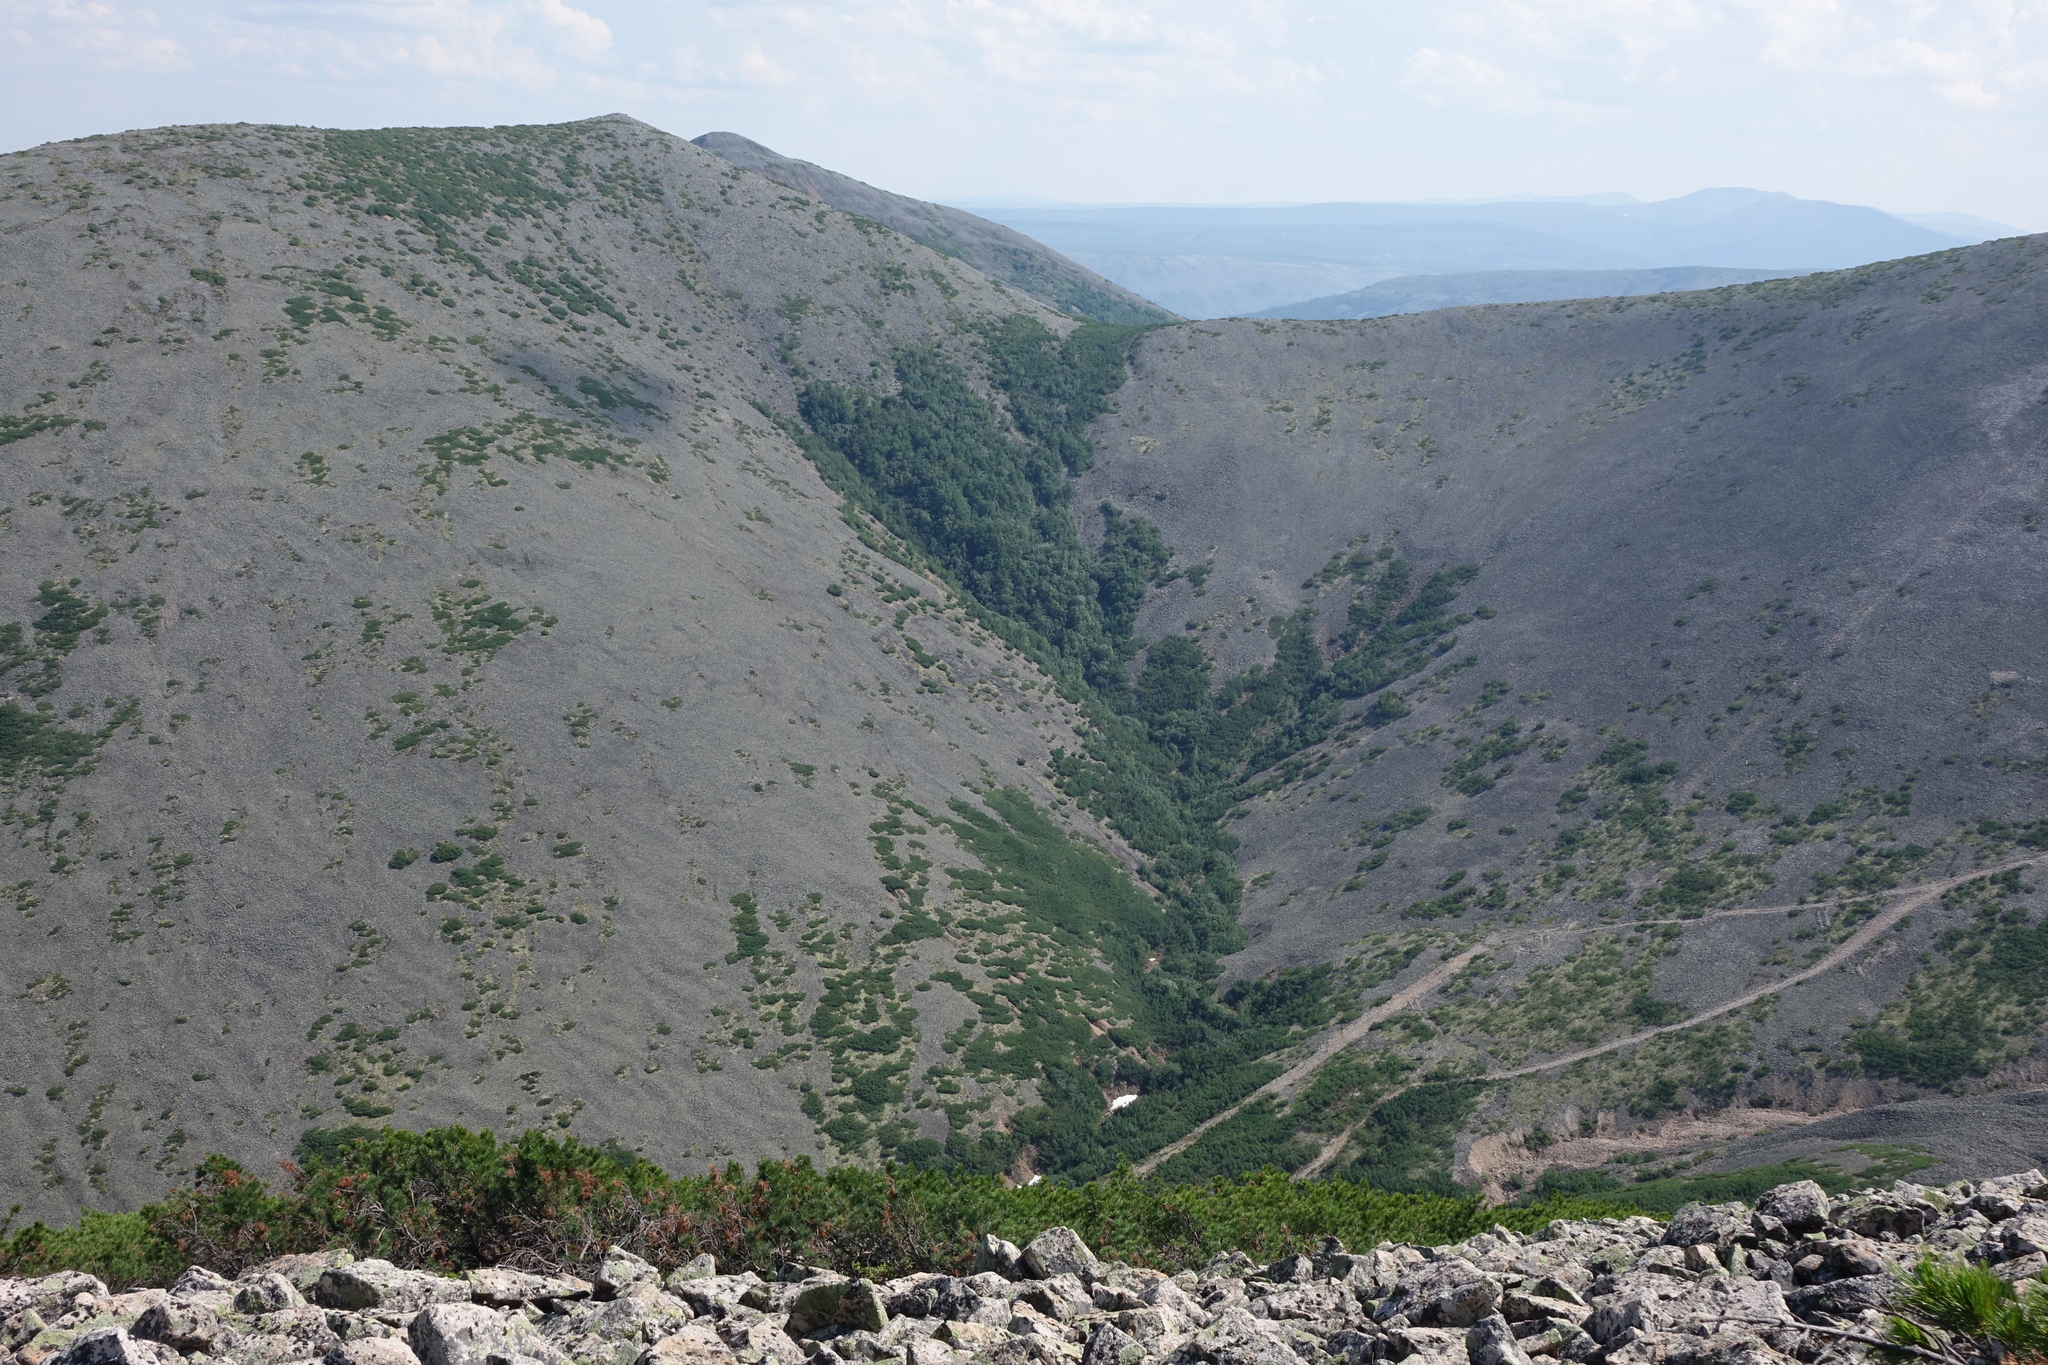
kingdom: Plantae
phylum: Tracheophyta
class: Pinopsida
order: Pinales
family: Pinaceae
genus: Pinus
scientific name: Pinus pumila
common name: Dwarf siberian pine
